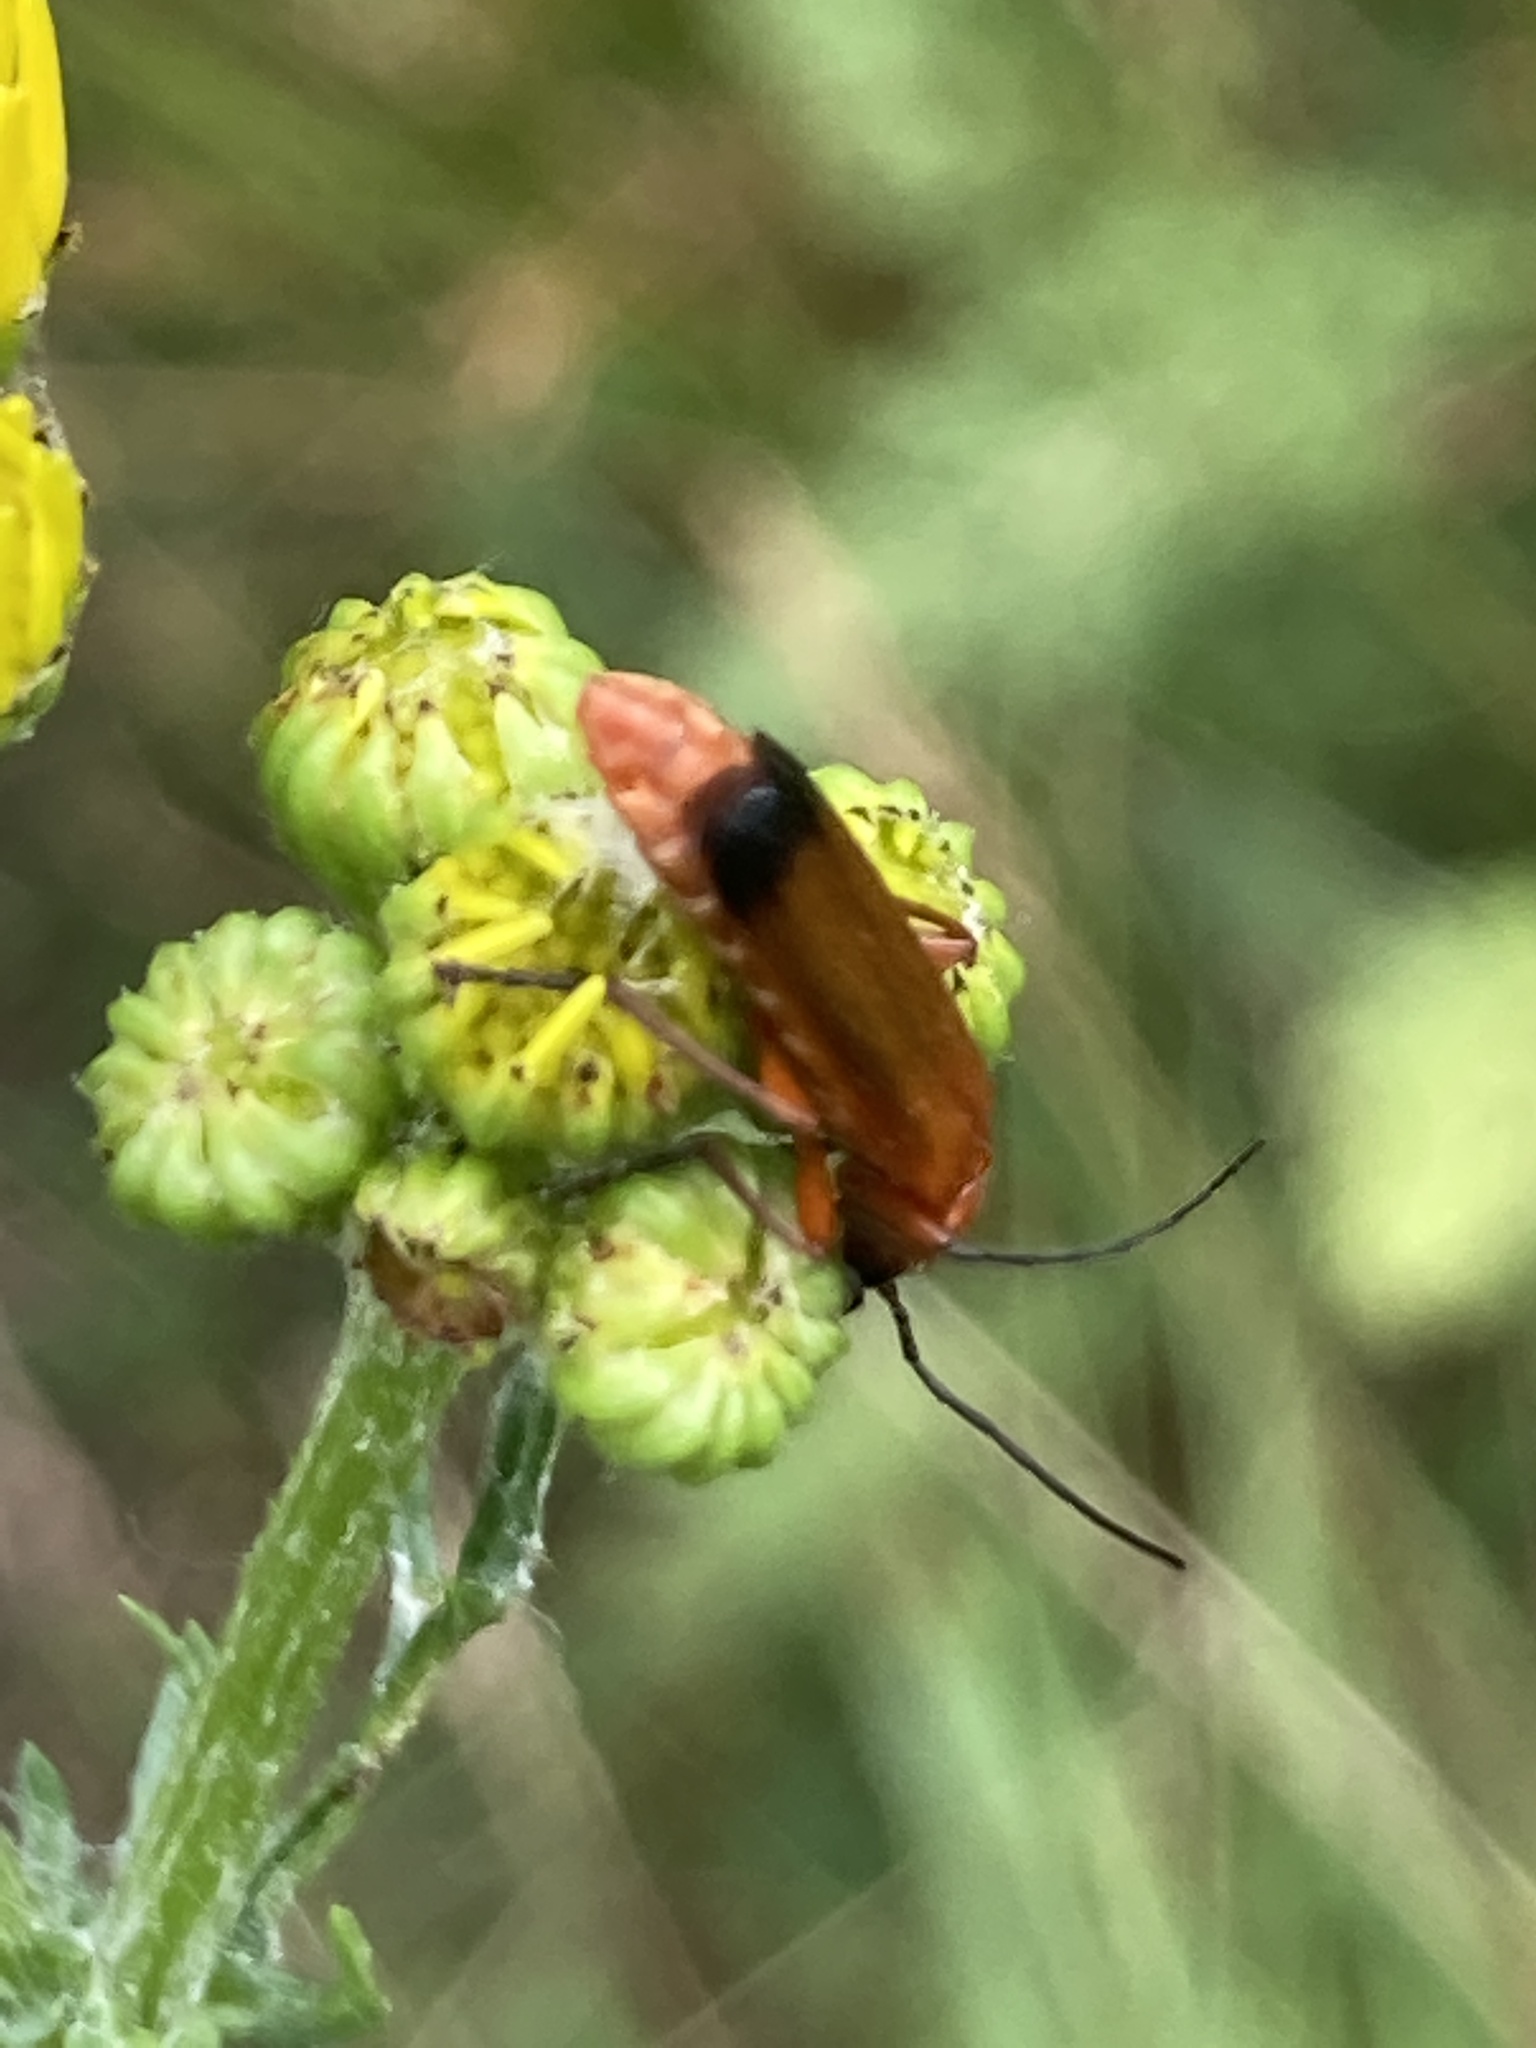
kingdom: Animalia
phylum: Arthropoda
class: Insecta
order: Coleoptera
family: Cantharidae
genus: Rhagonycha
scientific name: Rhagonycha fulva
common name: Common red soldier beetle
